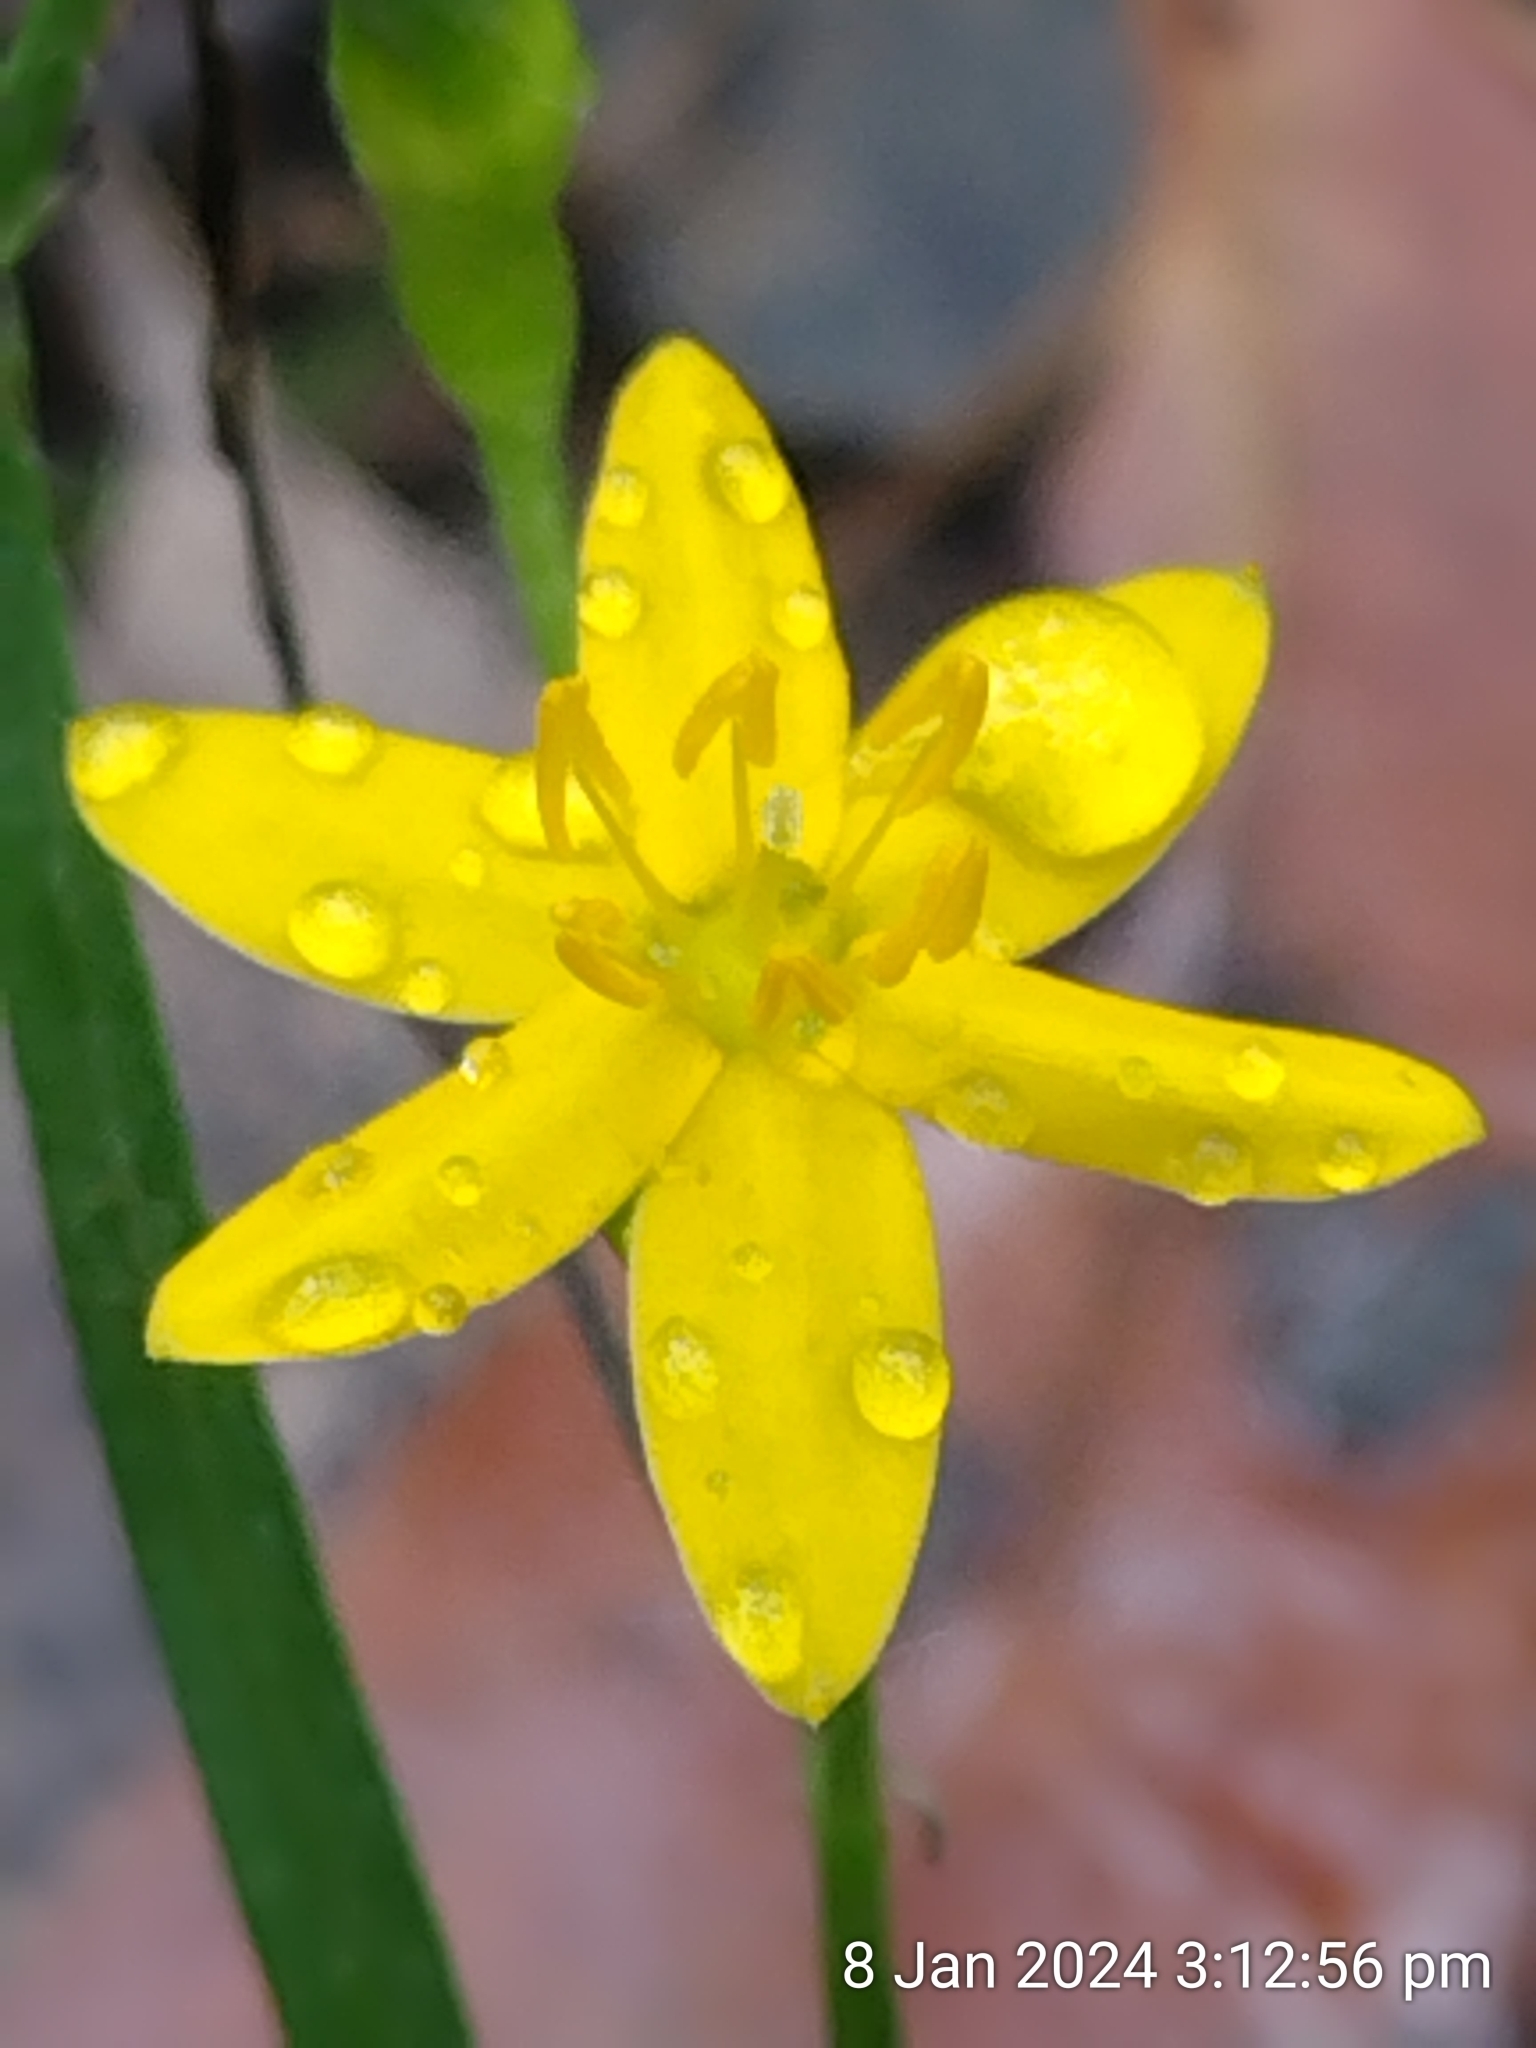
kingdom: Plantae
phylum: Tracheophyta
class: Liliopsida
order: Asparagales
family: Hypoxidaceae
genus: Hypoxis
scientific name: Hypoxis hygrometrica
